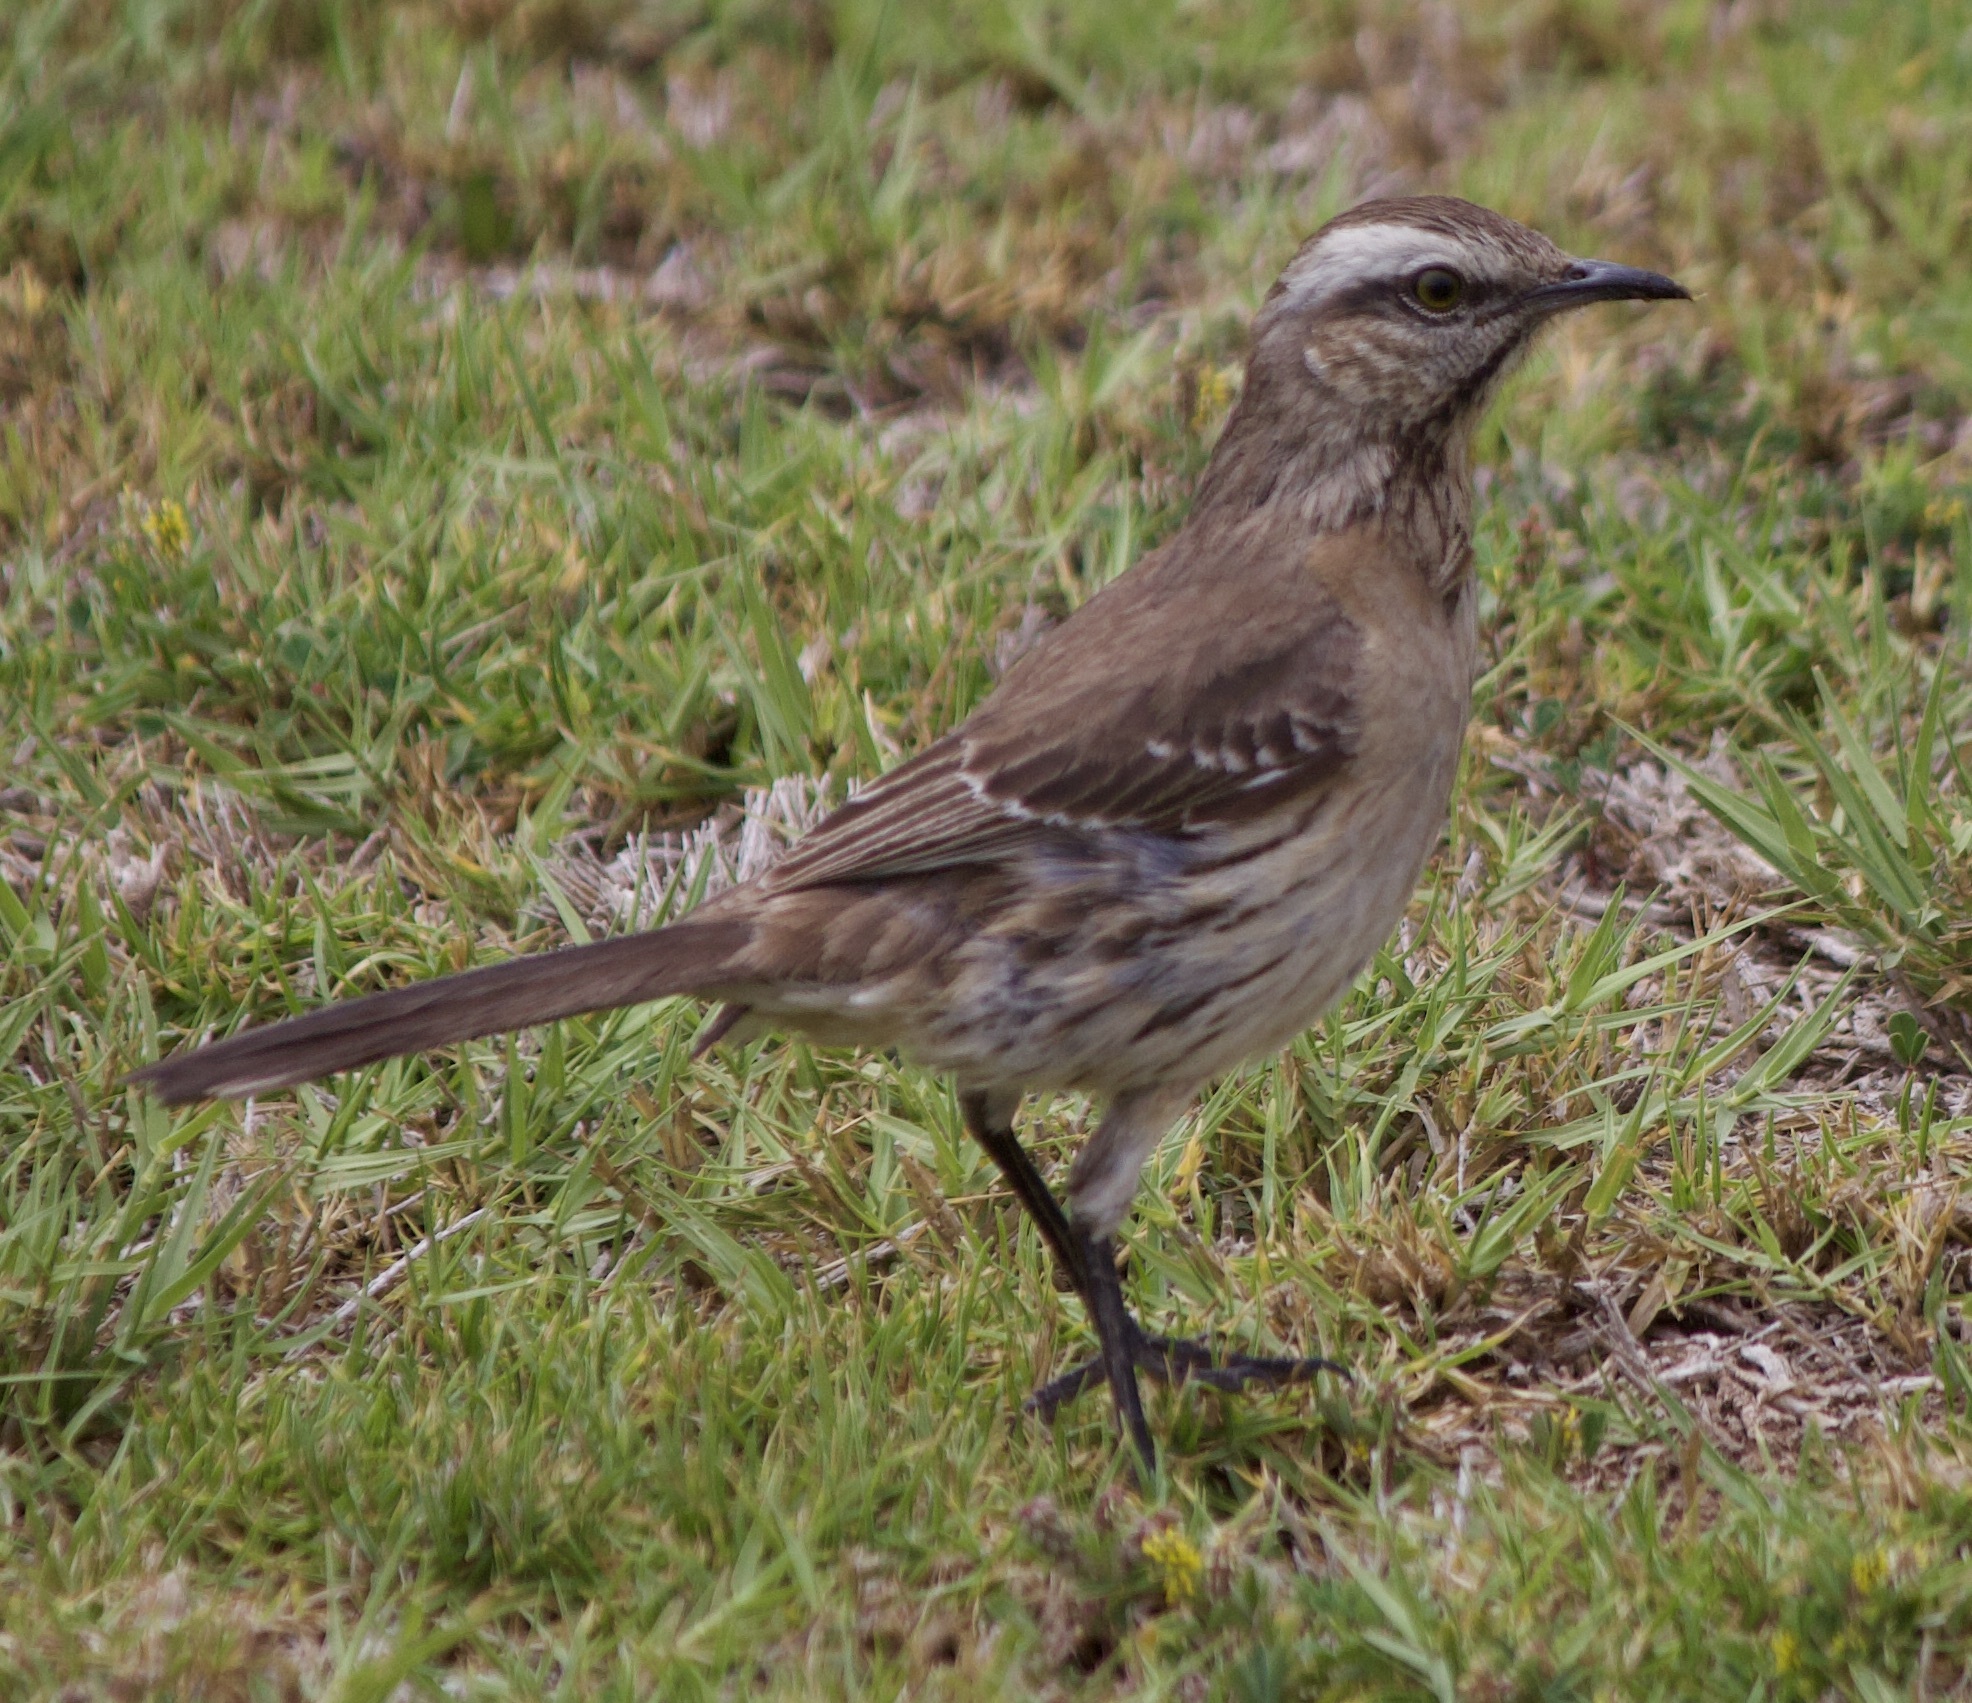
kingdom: Animalia
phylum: Chordata
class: Aves
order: Passeriformes
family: Mimidae
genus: Mimus
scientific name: Mimus thenca
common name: Chilean mockingbird
